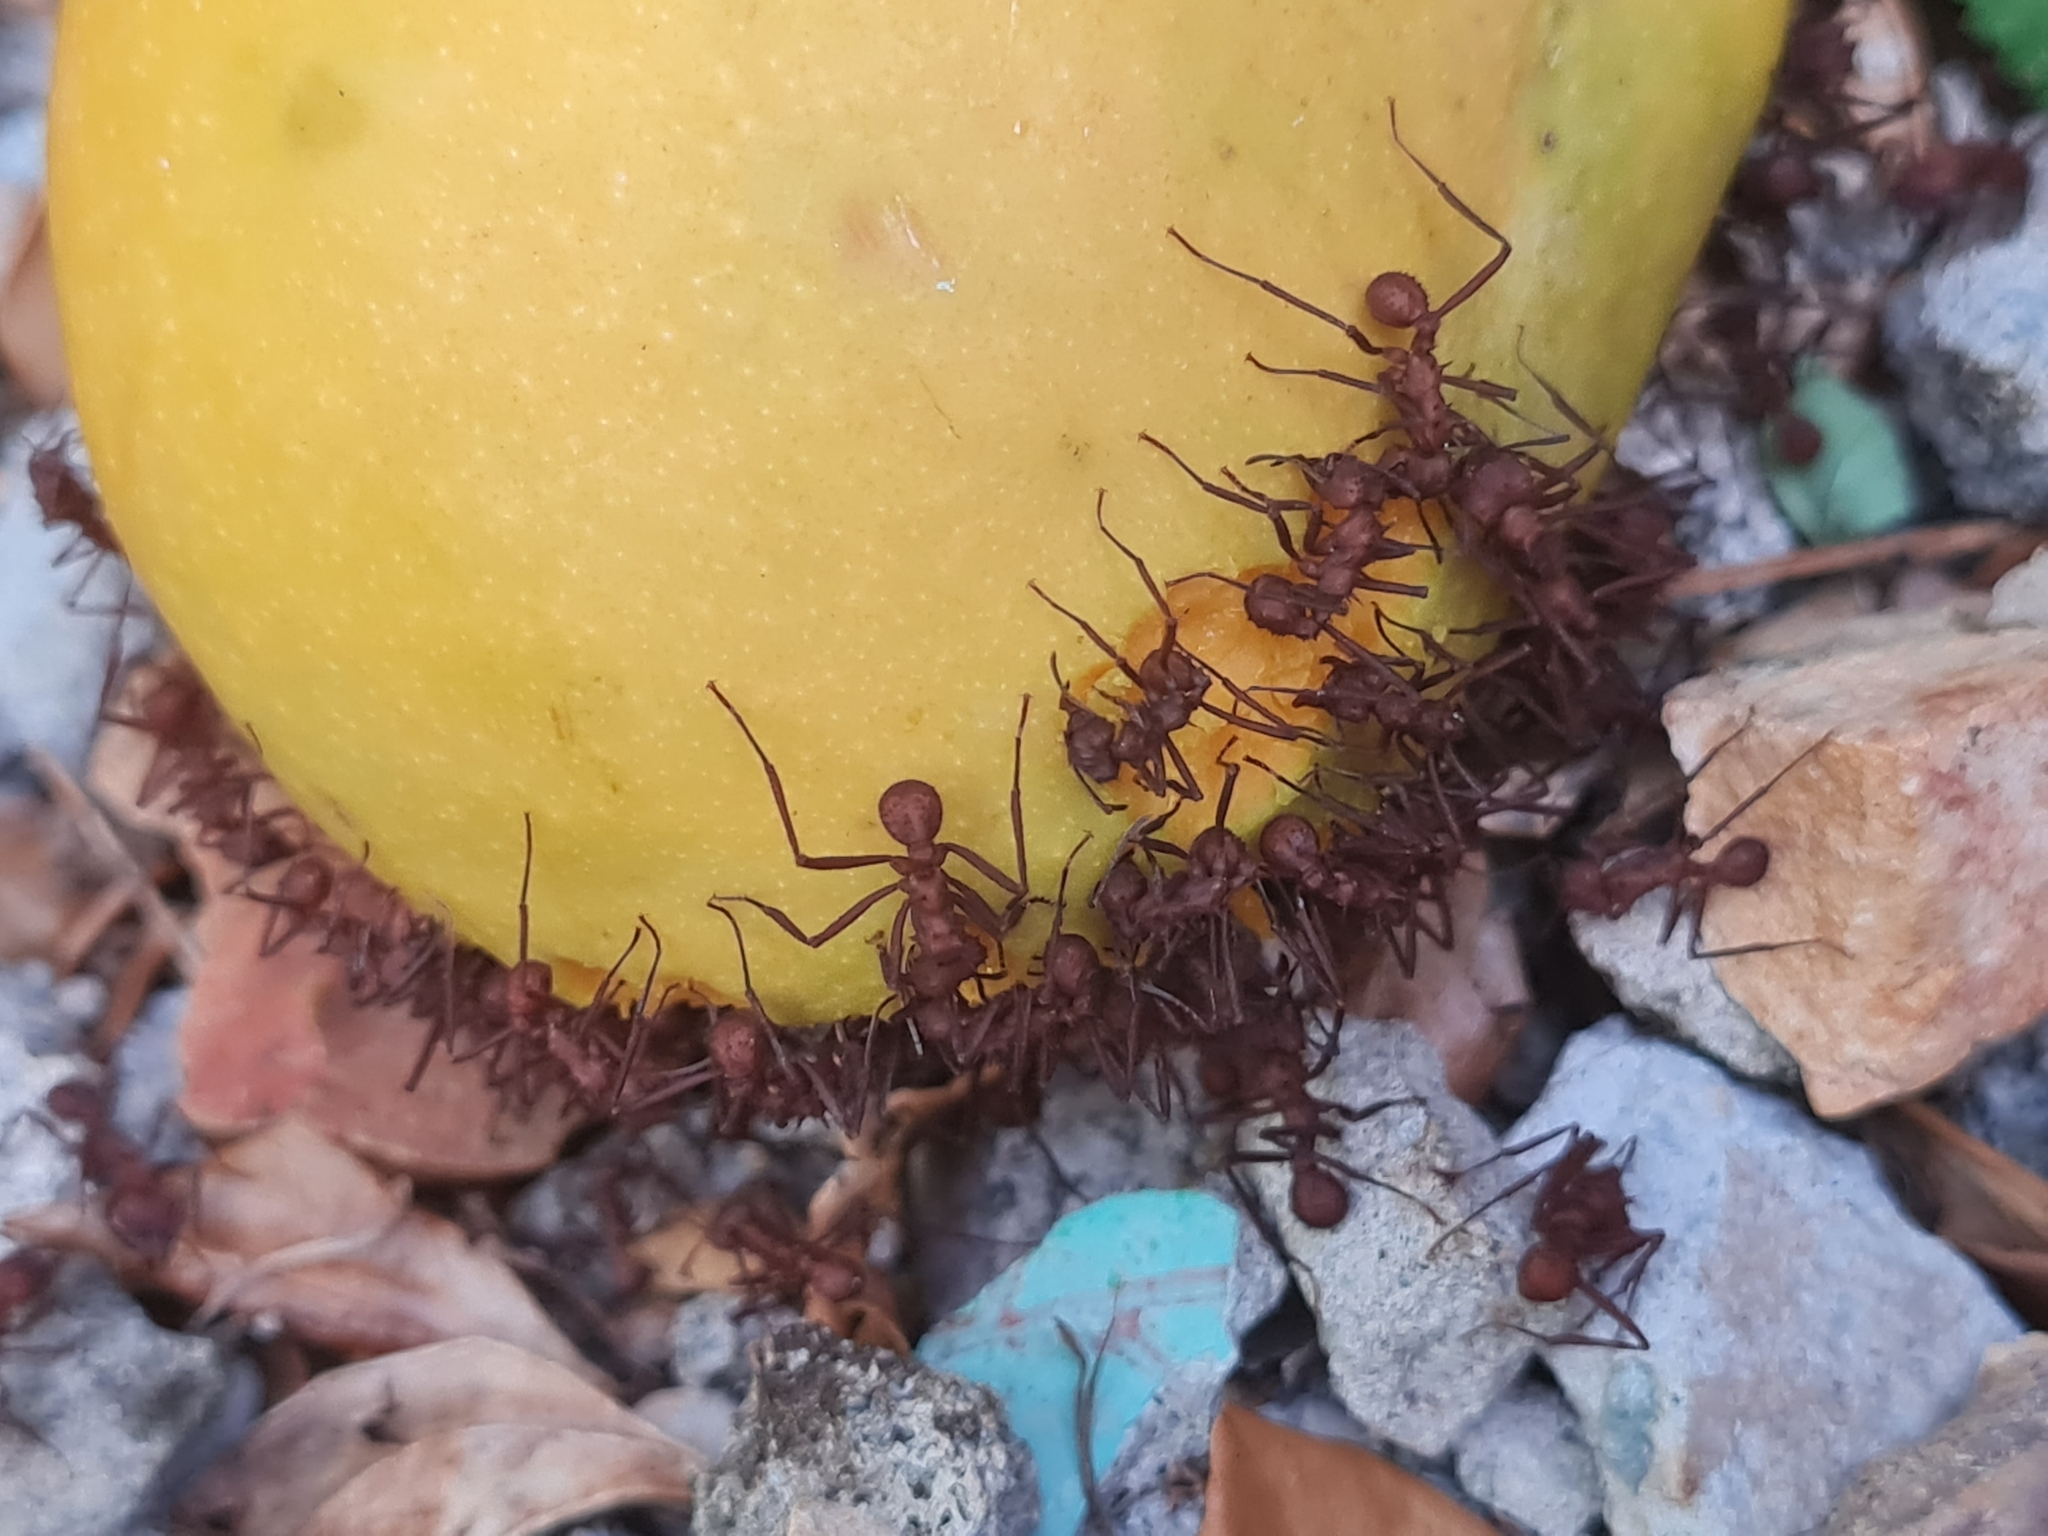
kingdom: Animalia
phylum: Arthropoda
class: Insecta
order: Hymenoptera
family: Formicidae
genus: Atta
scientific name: Atta cephalotes
